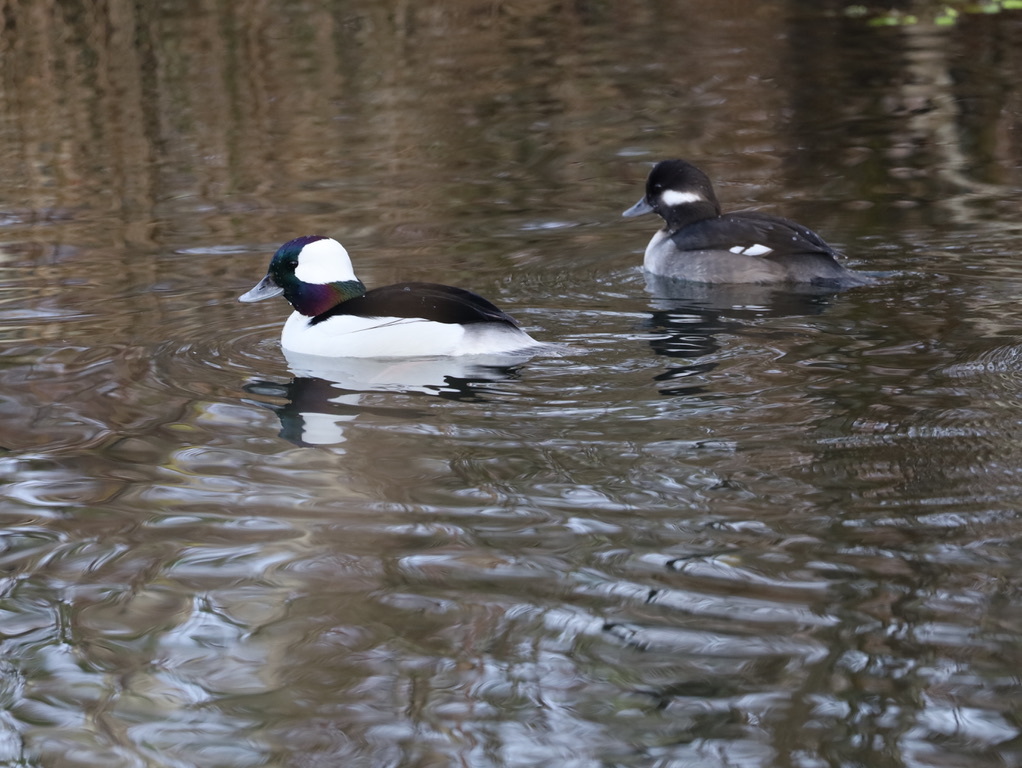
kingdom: Animalia
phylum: Chordata
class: Aves
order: Anseriformes
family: Anatidae
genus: Bucephala
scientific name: Bucephala albeola
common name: Bufflehead
